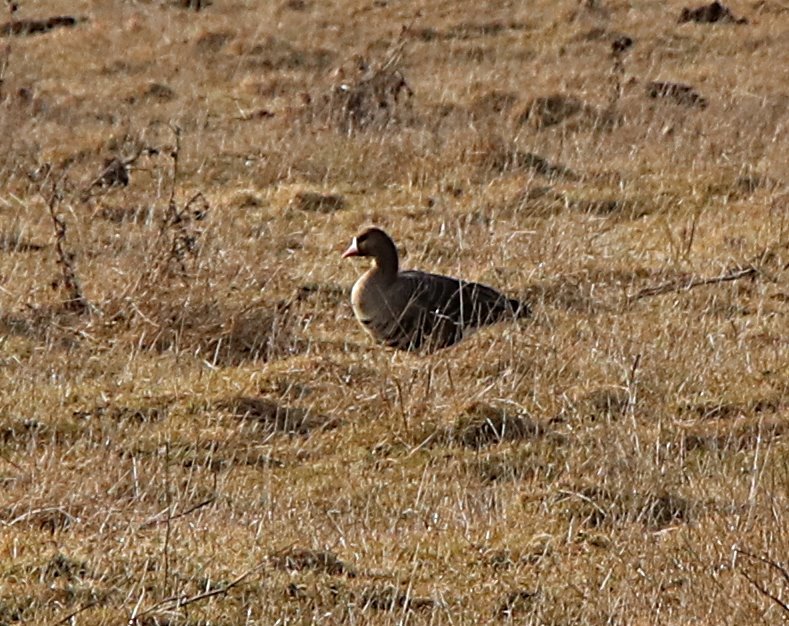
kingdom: Animalia
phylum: Chordata
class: Aves
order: Anseriformes
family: Anatidae
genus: Anser
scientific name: Anser albifrons
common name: Greater white-fronted goose
